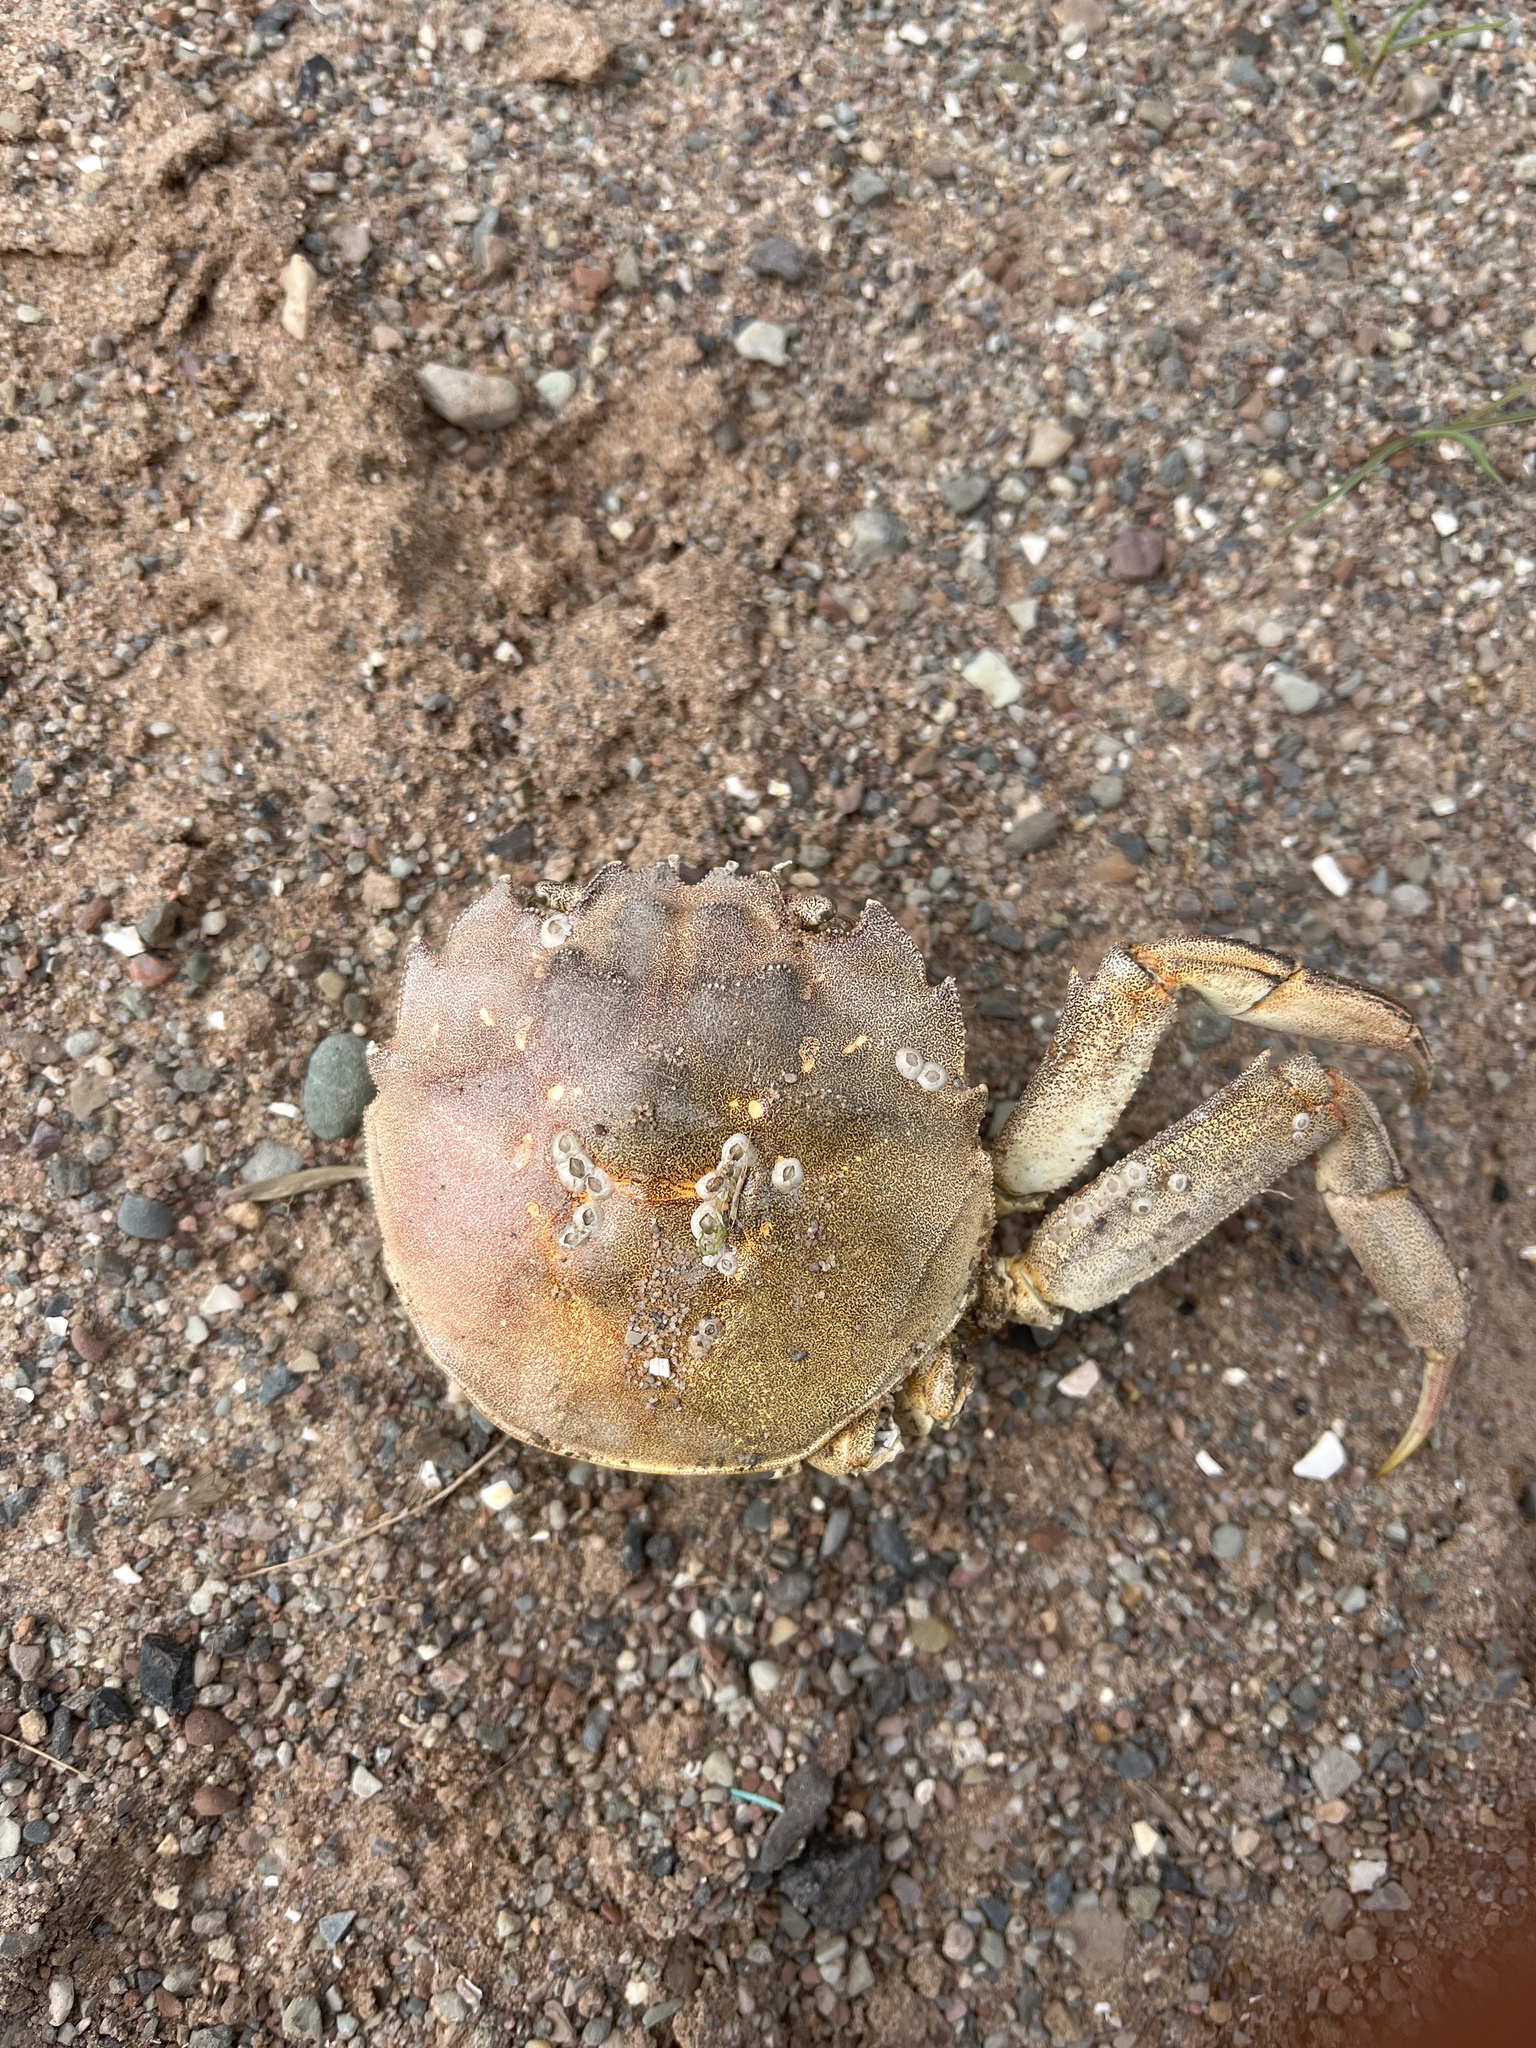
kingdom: Animalia
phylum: Arthropoda
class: Malacostraca
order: Decapoda
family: Varunidae
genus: Eriocheir
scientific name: Eriocheir sinensis
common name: Chinese mitten crab
